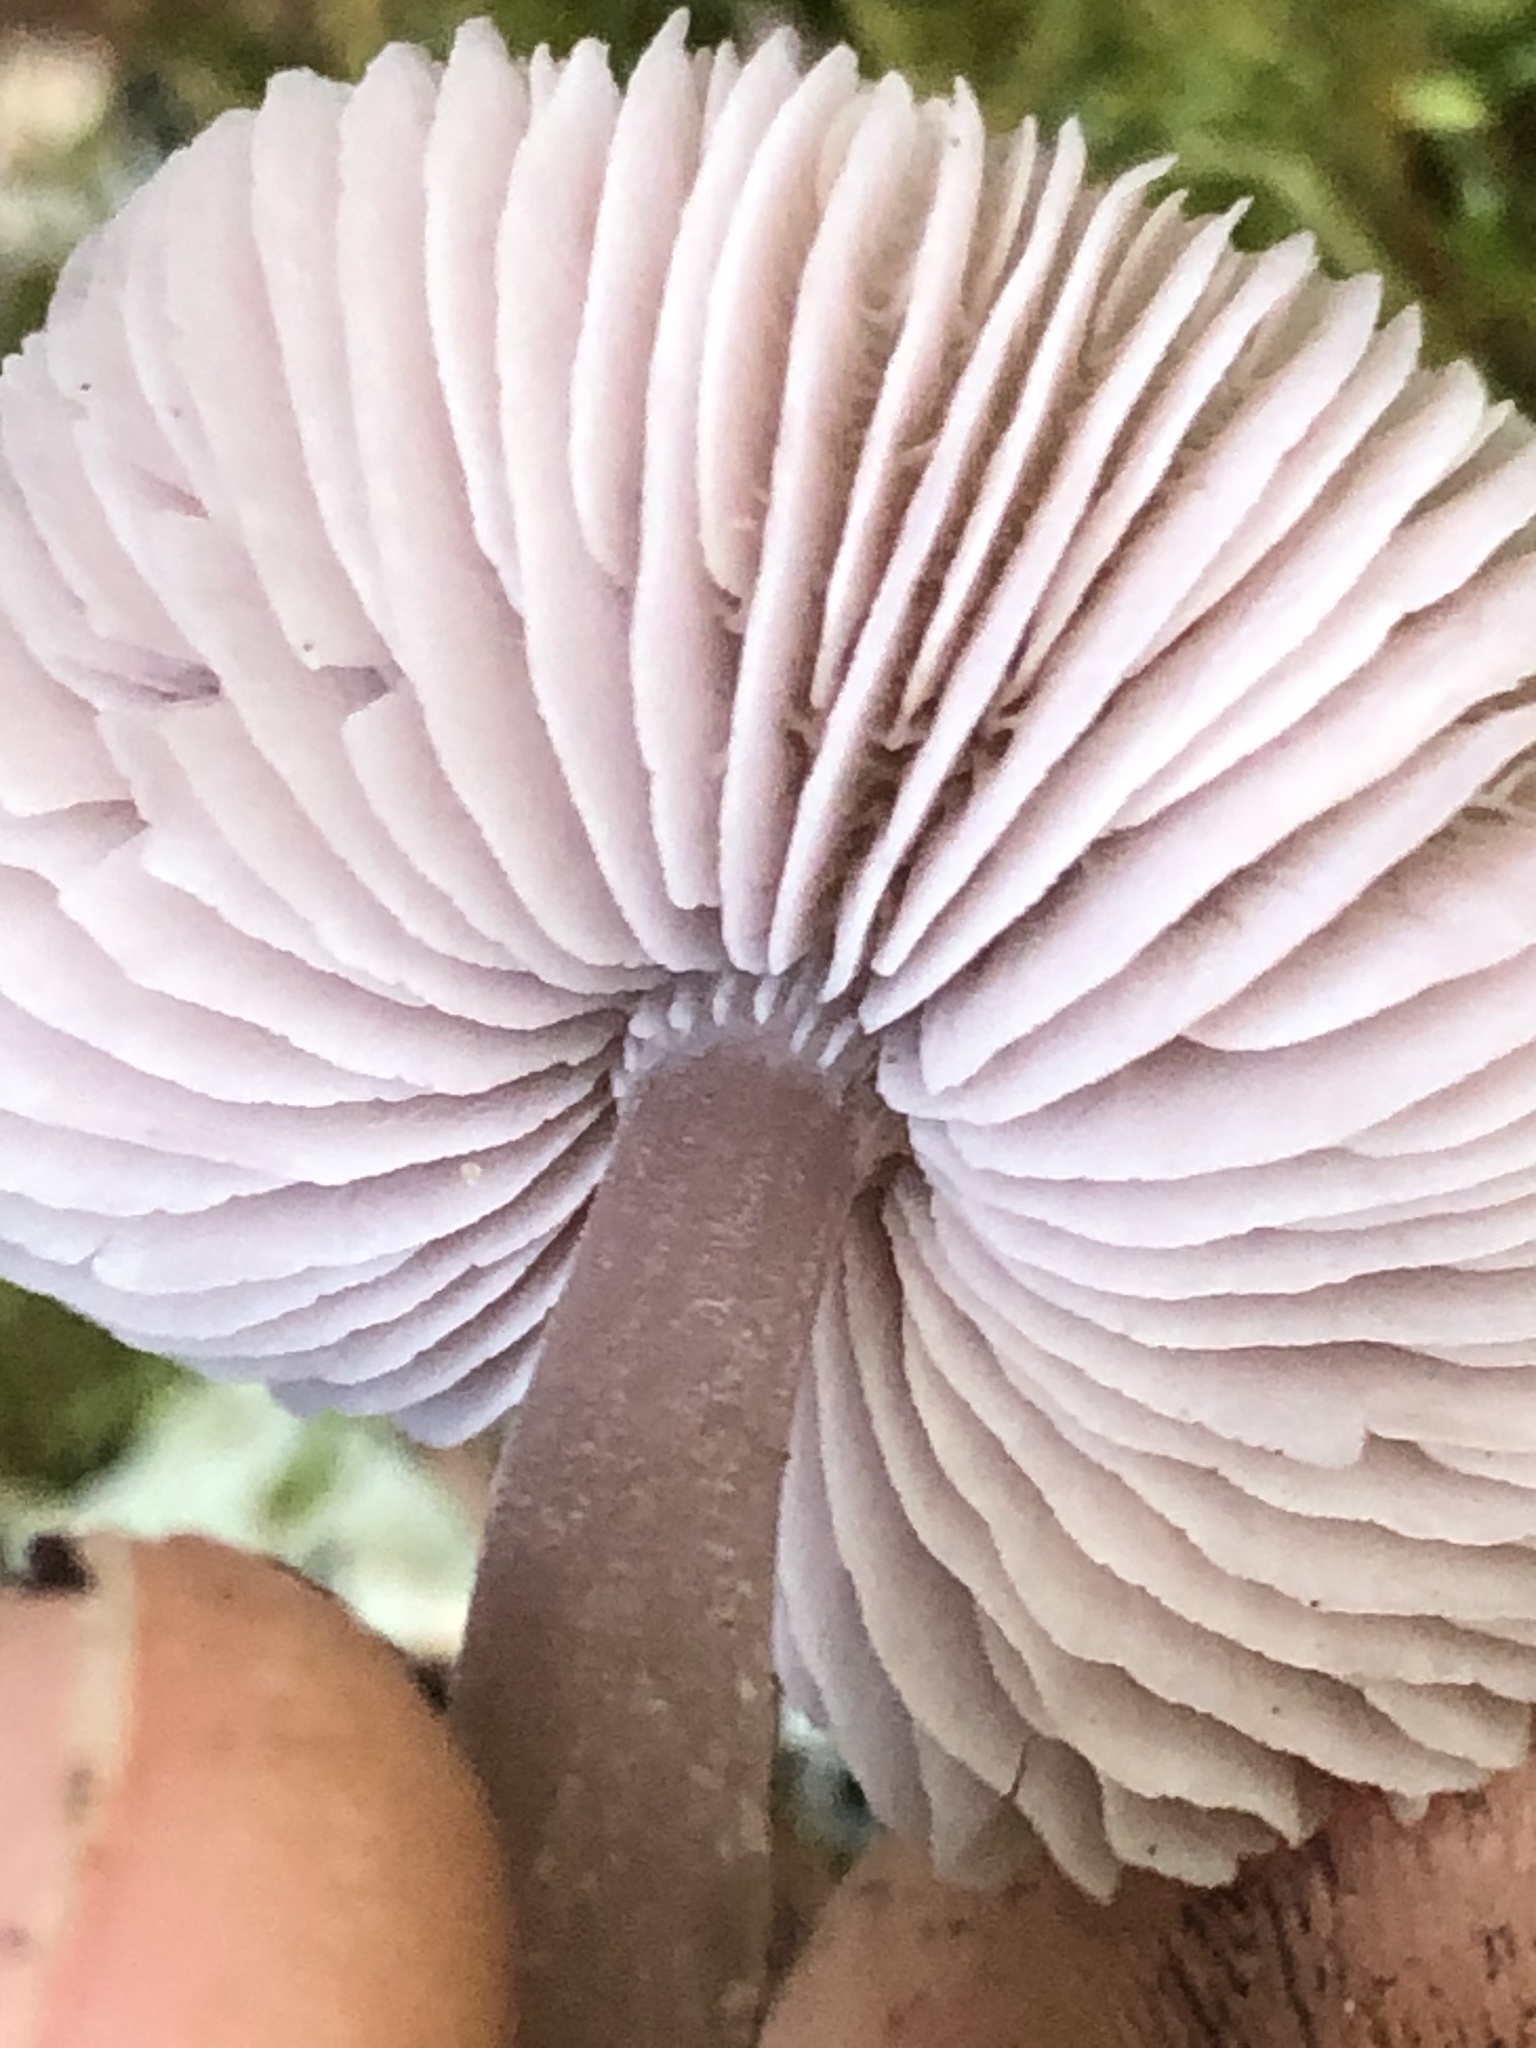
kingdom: Fungi
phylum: Basidiomycota
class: Agaricomycetes
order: Agaricales
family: Mycenaceae
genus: Mycena
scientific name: Mycena pura
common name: Lilac bonnet
